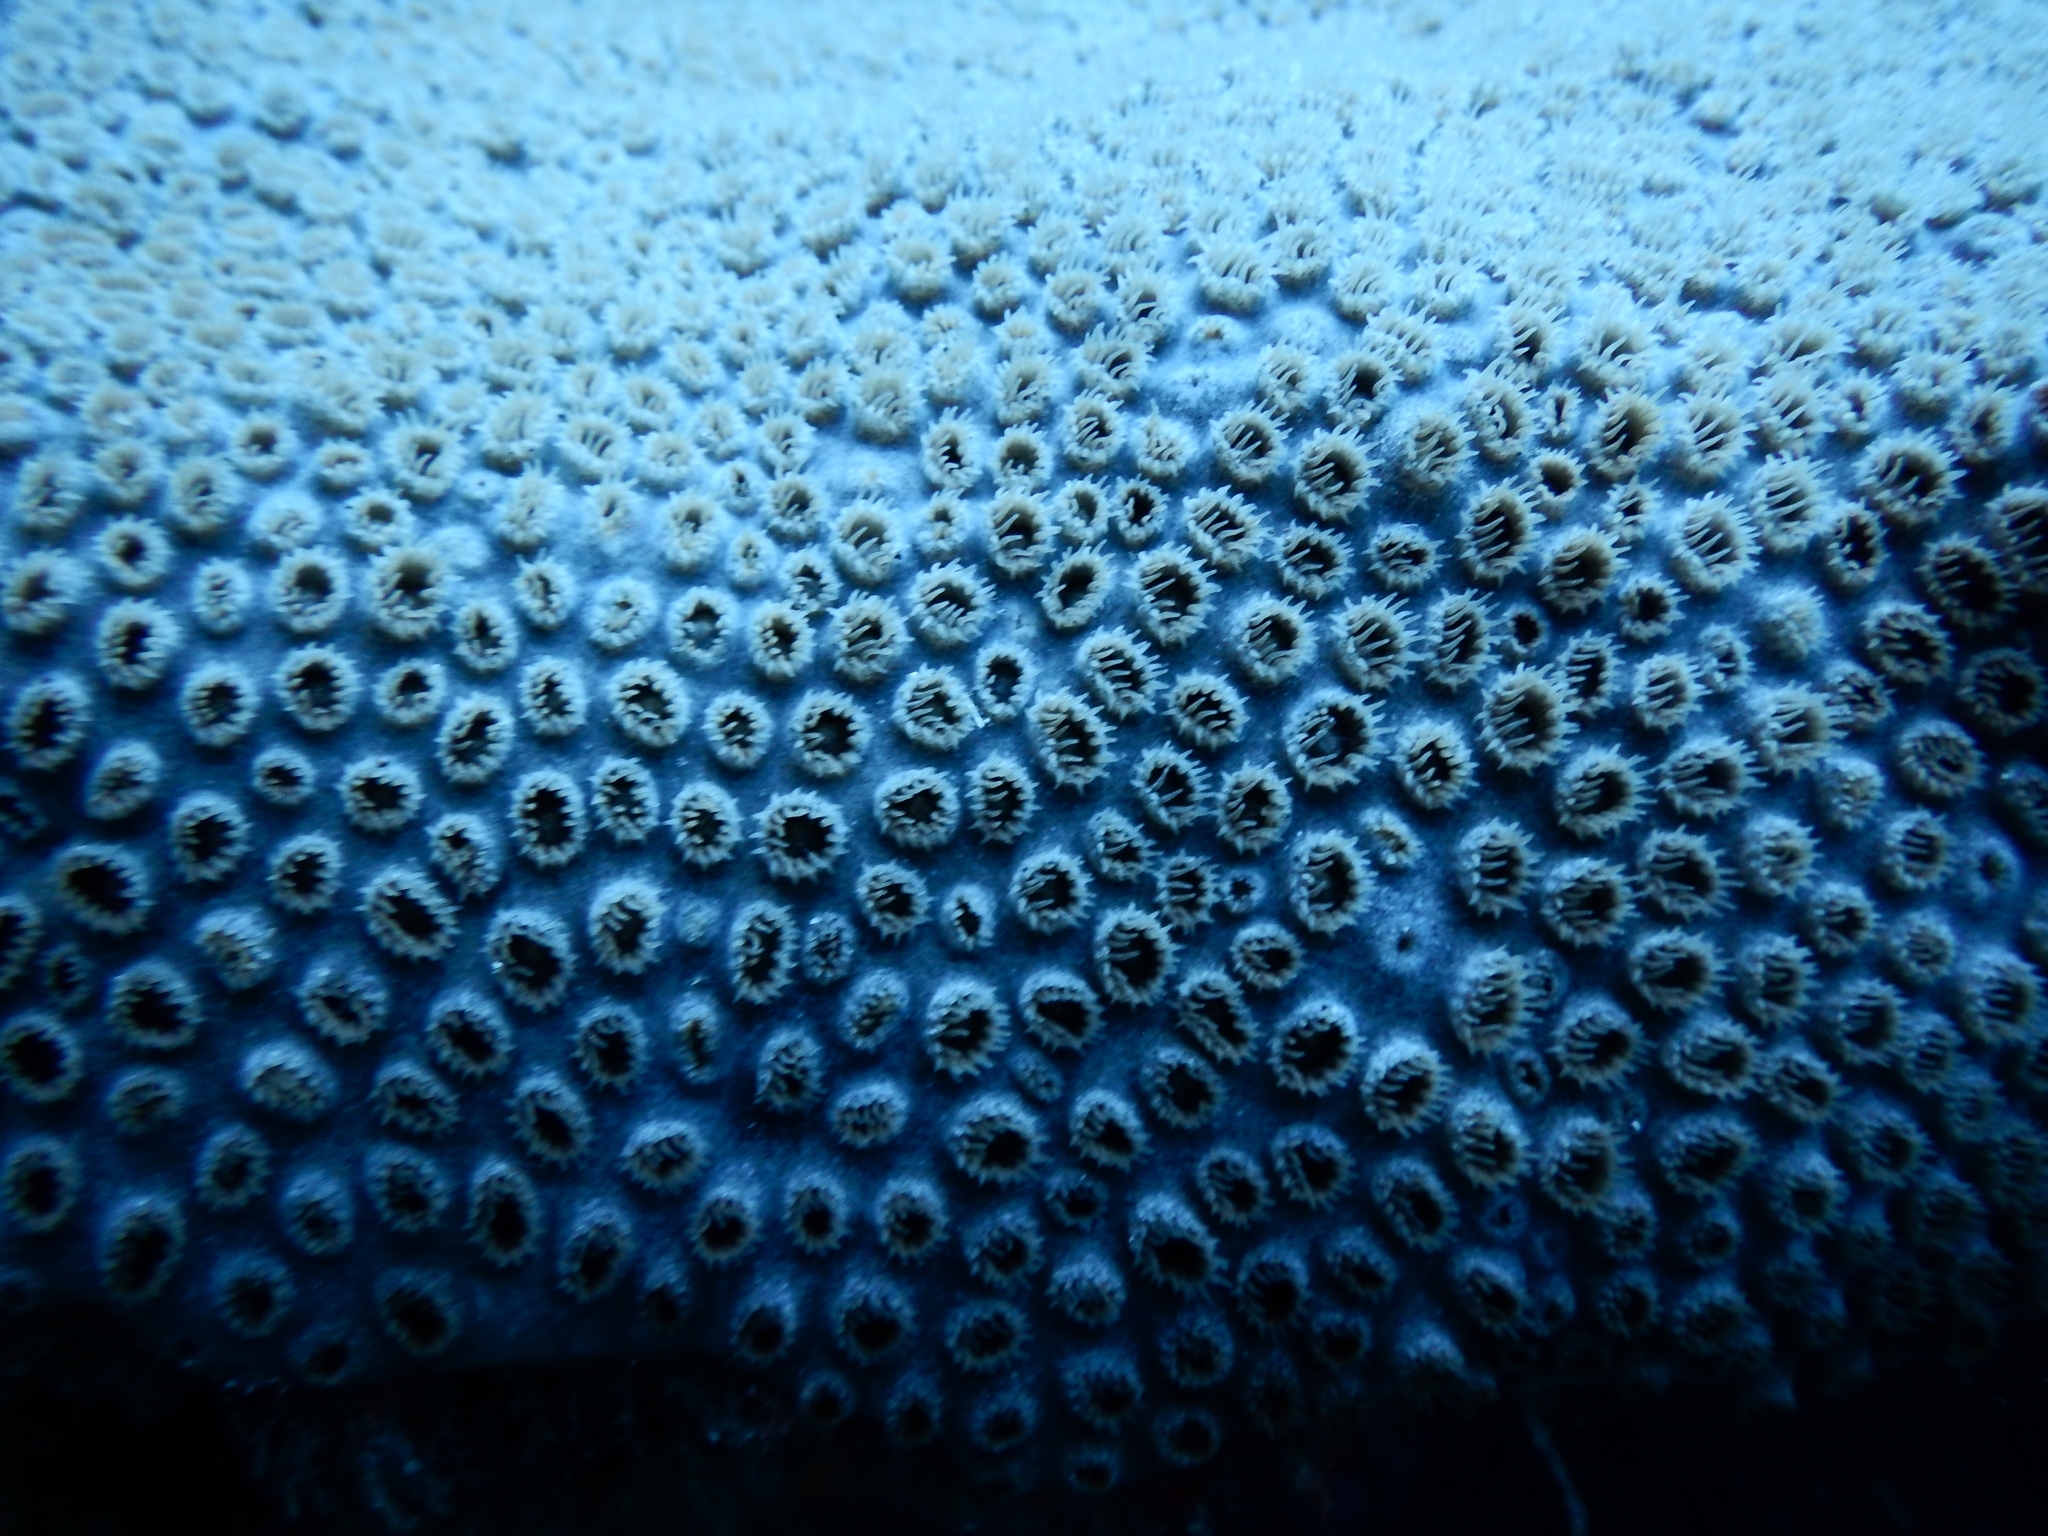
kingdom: Animalia
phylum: Cnidaria
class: Anthozoa
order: Zoantharia
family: Sphenopidae
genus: Palythoa
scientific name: Palythoa caribaeorum
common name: Encrusting colonial anemone
